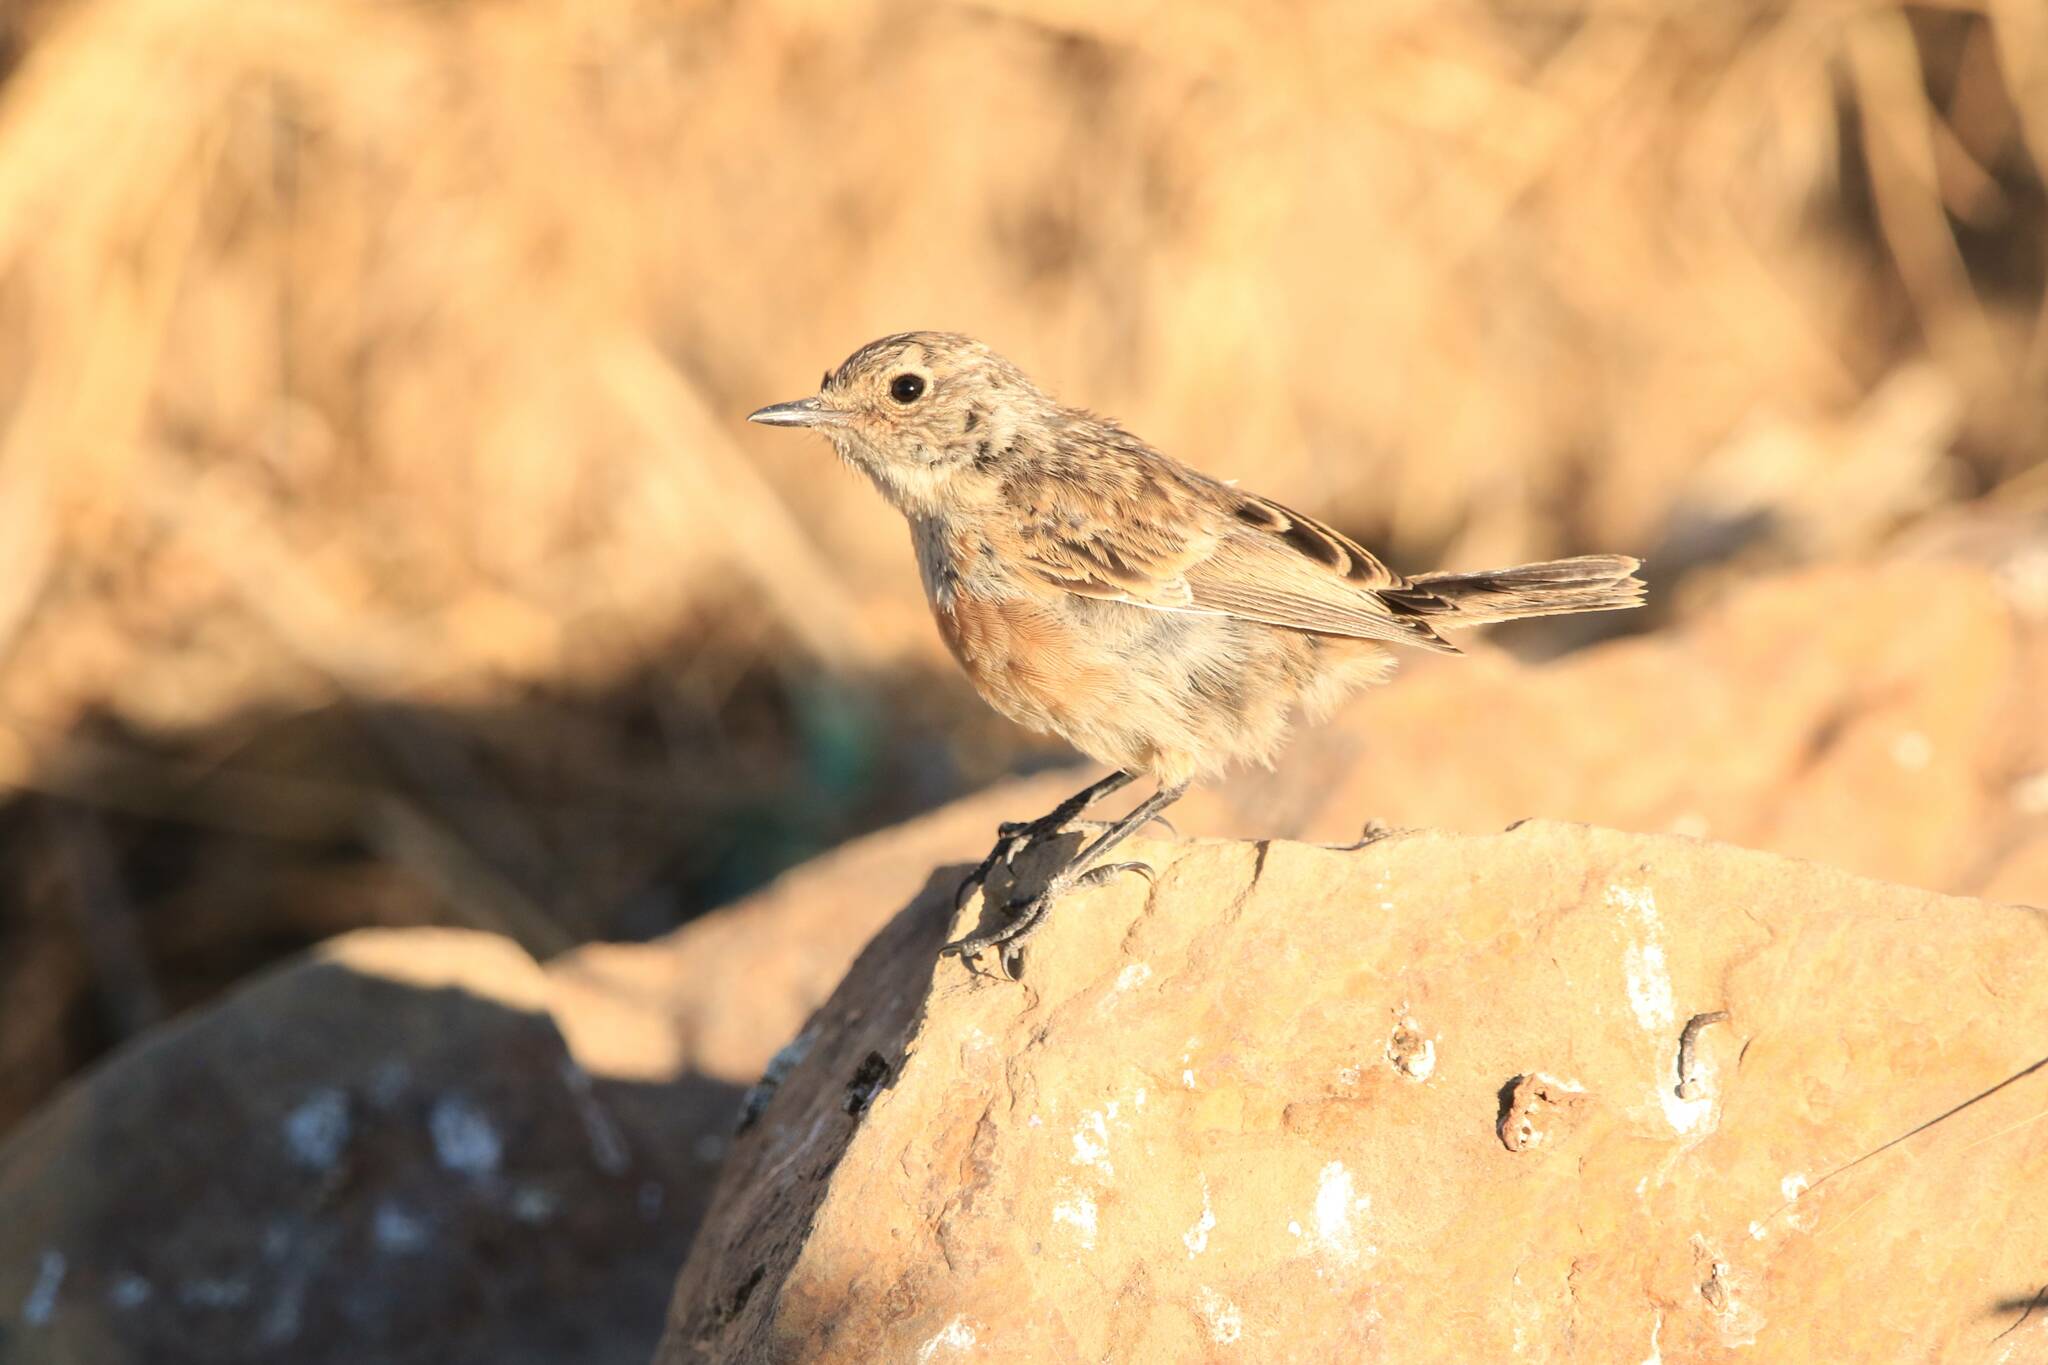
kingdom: Animalia
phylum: Chordata
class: Aves
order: Passeriformes
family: Muscicapidae
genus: Phoenicurus
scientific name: Phoenicurus moussieri
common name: Moussier's redstart
